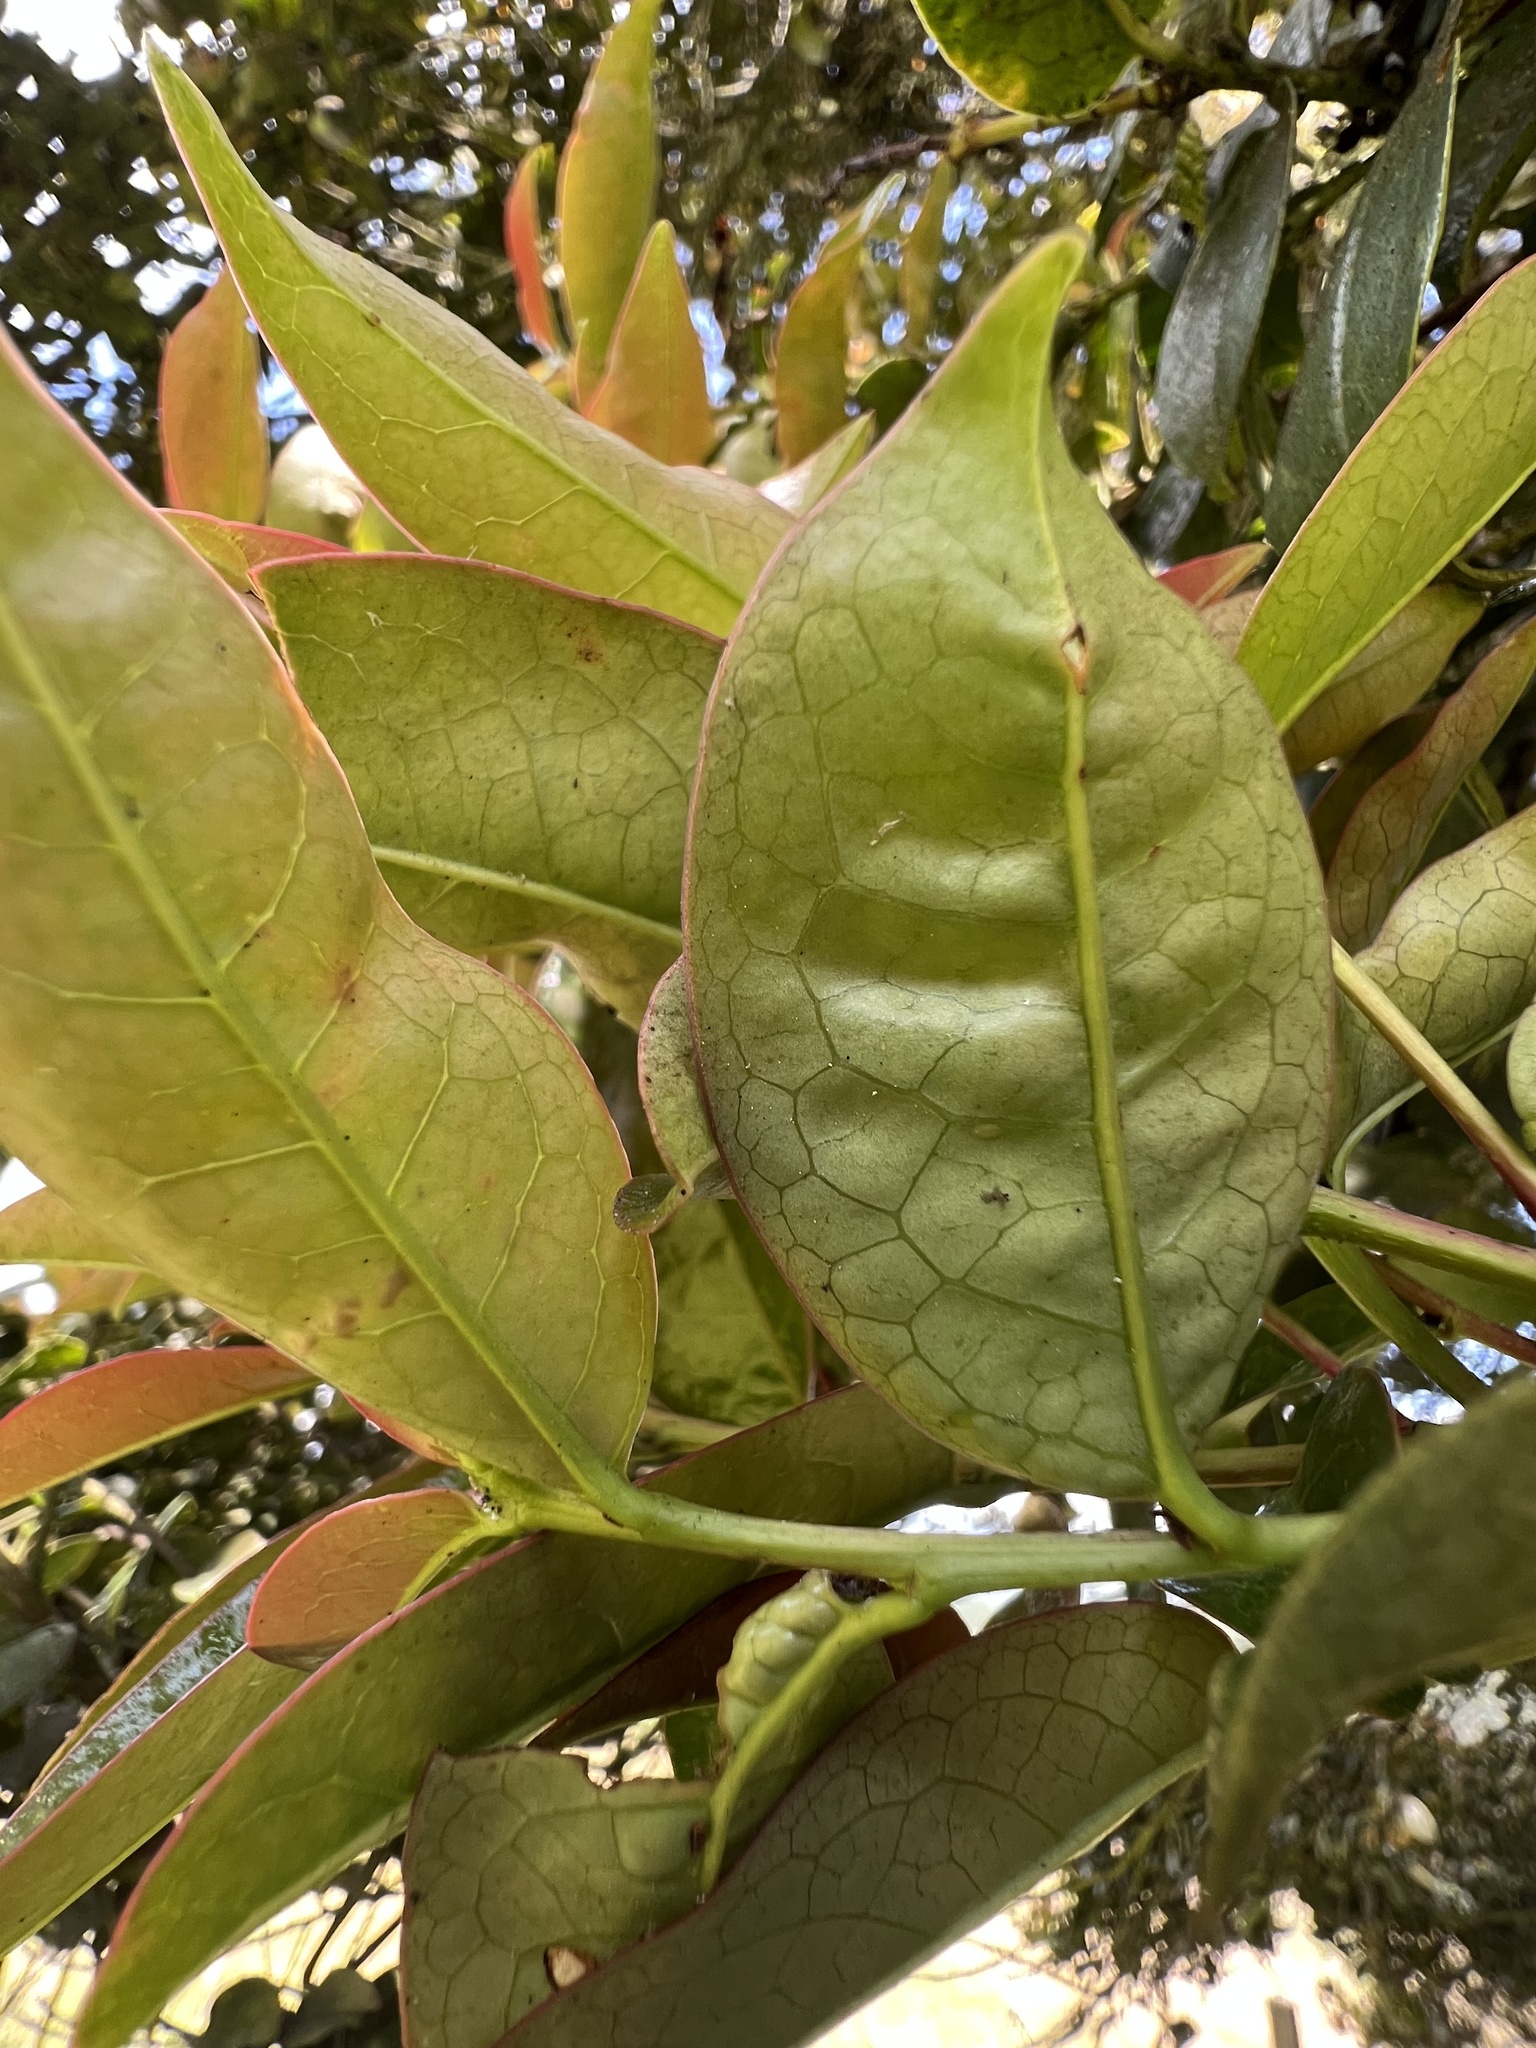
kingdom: Plantae
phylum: Tracheophyta
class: Magnoliopsida
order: Rosales
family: Rosaceae
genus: Prunus
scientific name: Prunus buxifolia
